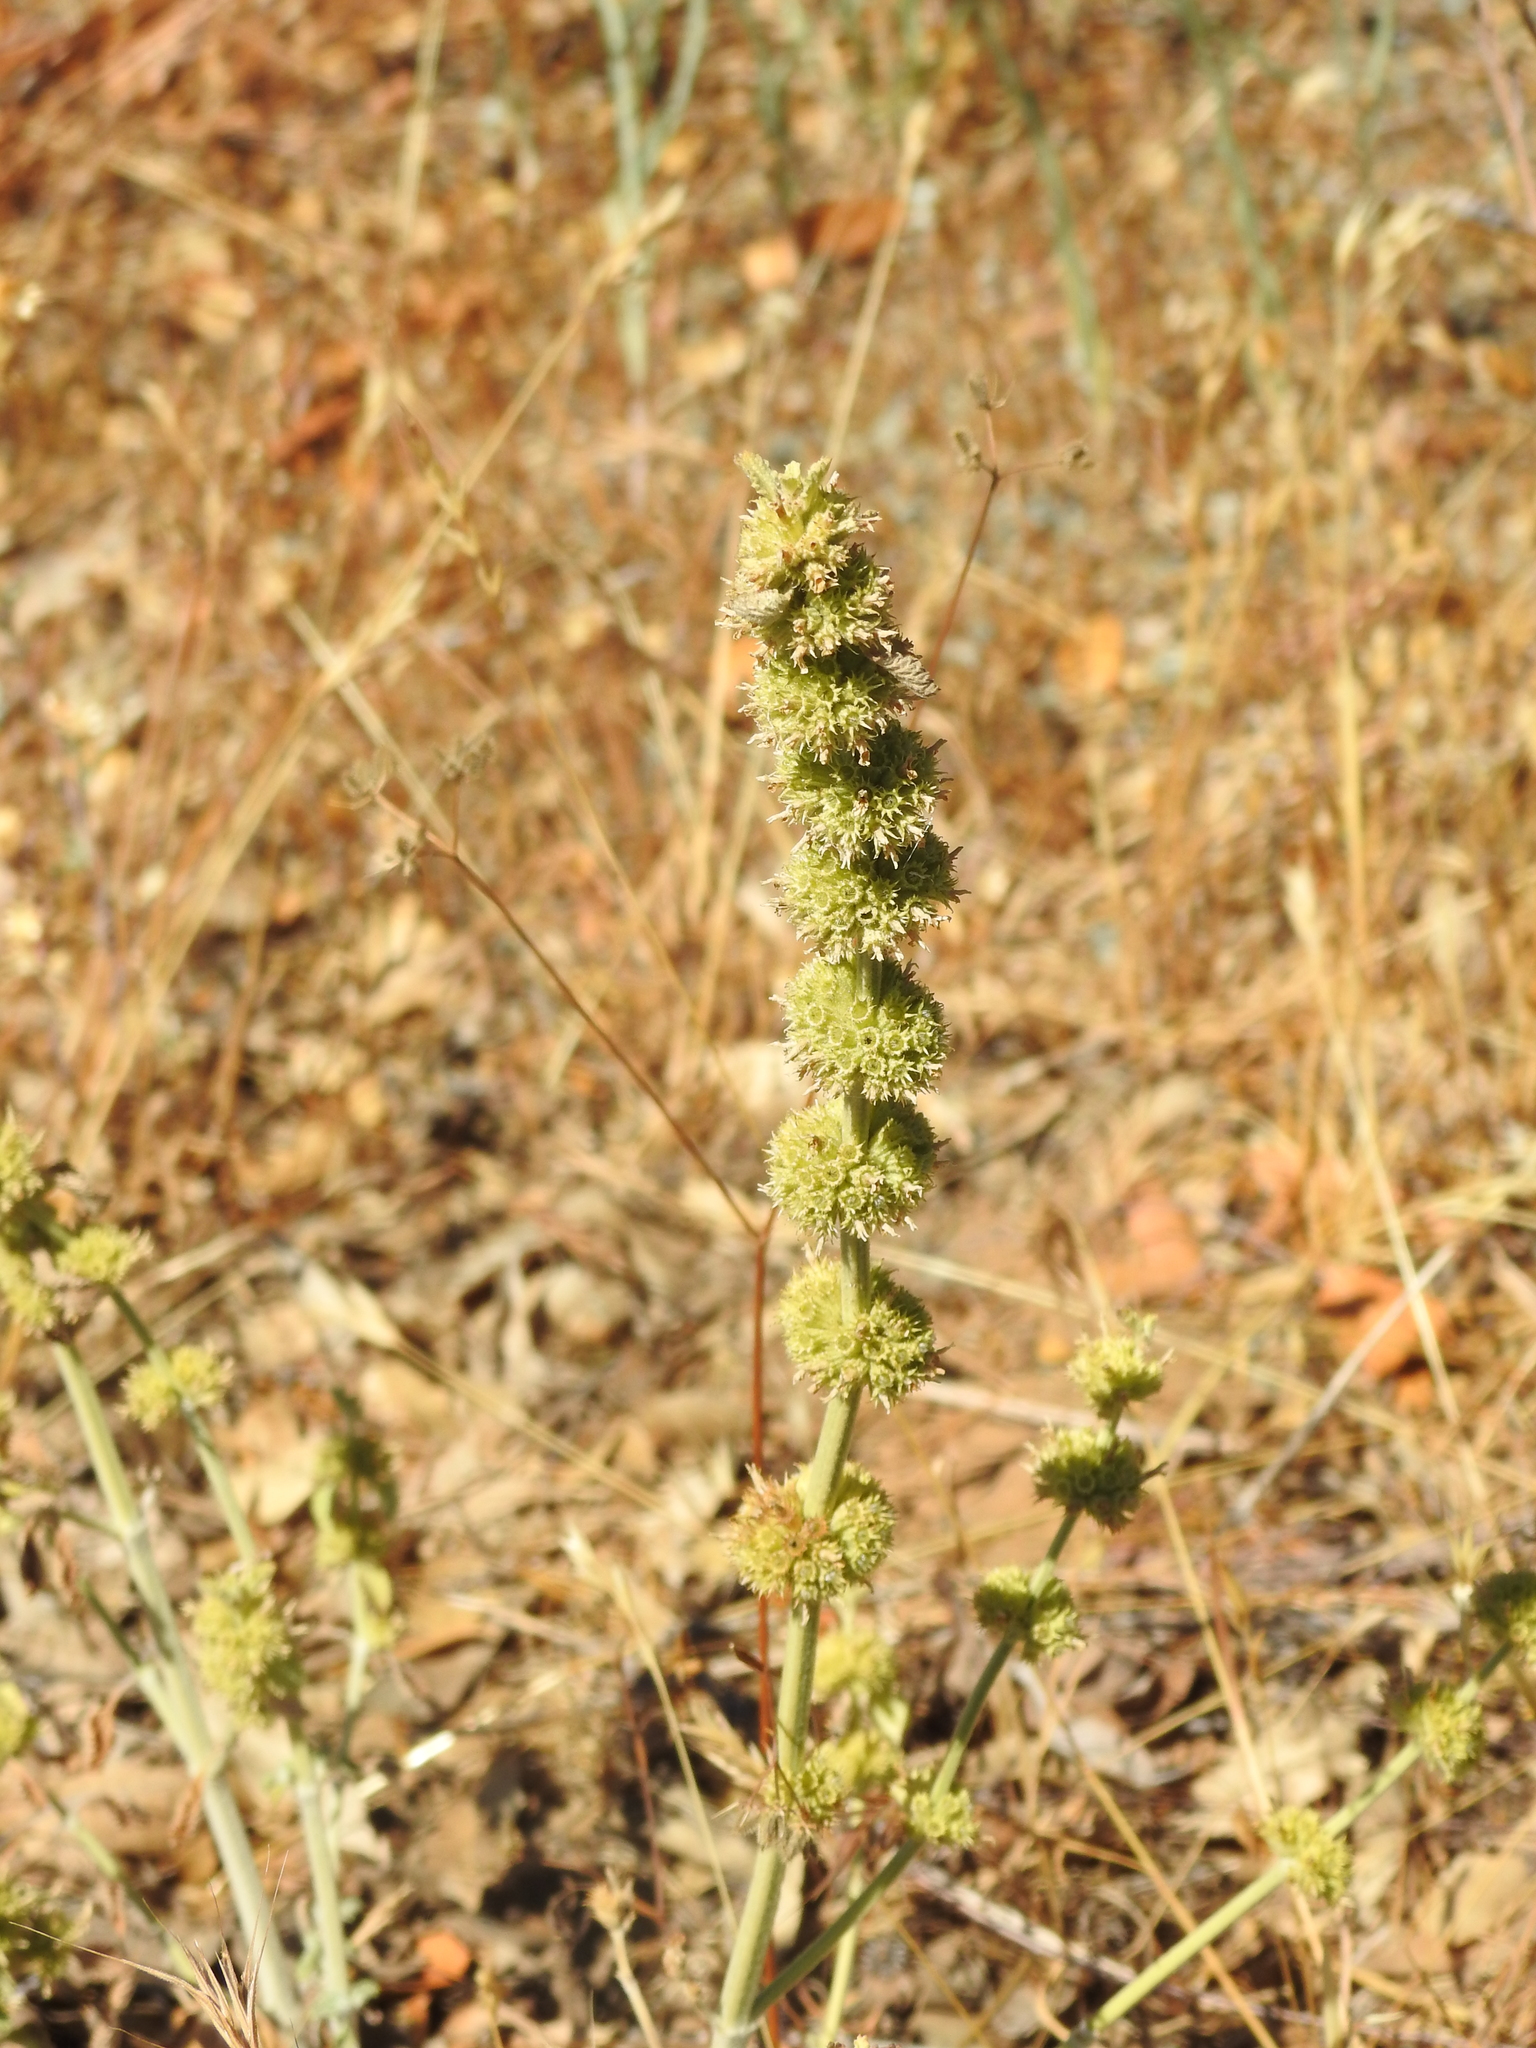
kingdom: Plantae
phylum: Tracheophyta
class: Magnoliopsida
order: Lamiales
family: Lamiaceae
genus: Marrubium
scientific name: Marrubium vulgare
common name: Horehound
